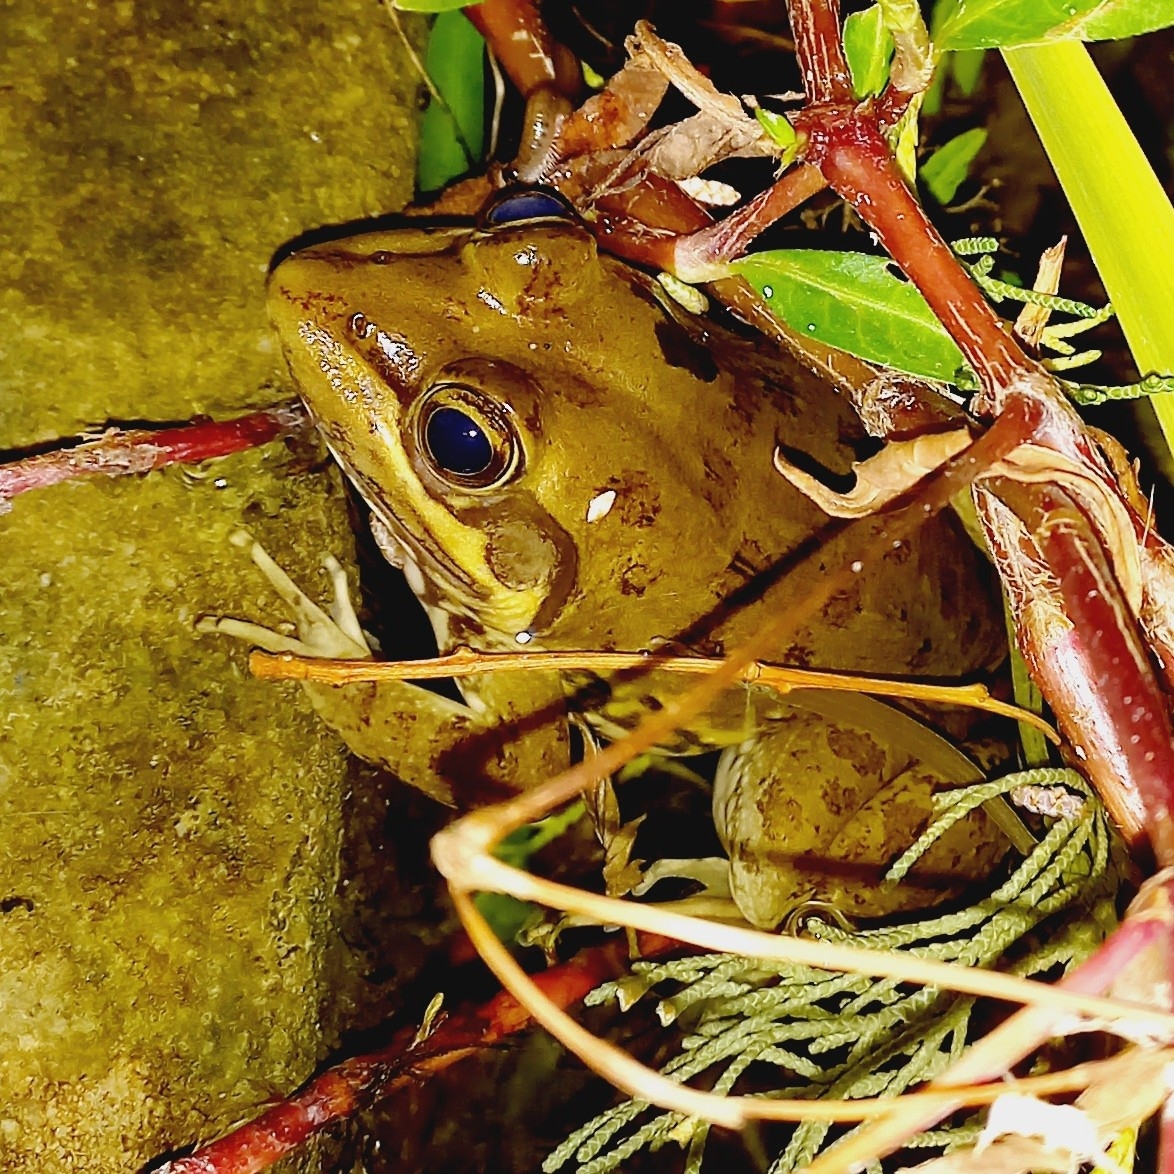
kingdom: Animalia
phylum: Chordata
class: Amphibia
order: Anura
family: Pyxicephalidae
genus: Amietia
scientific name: Amietia fuscigula
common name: Cape rana
